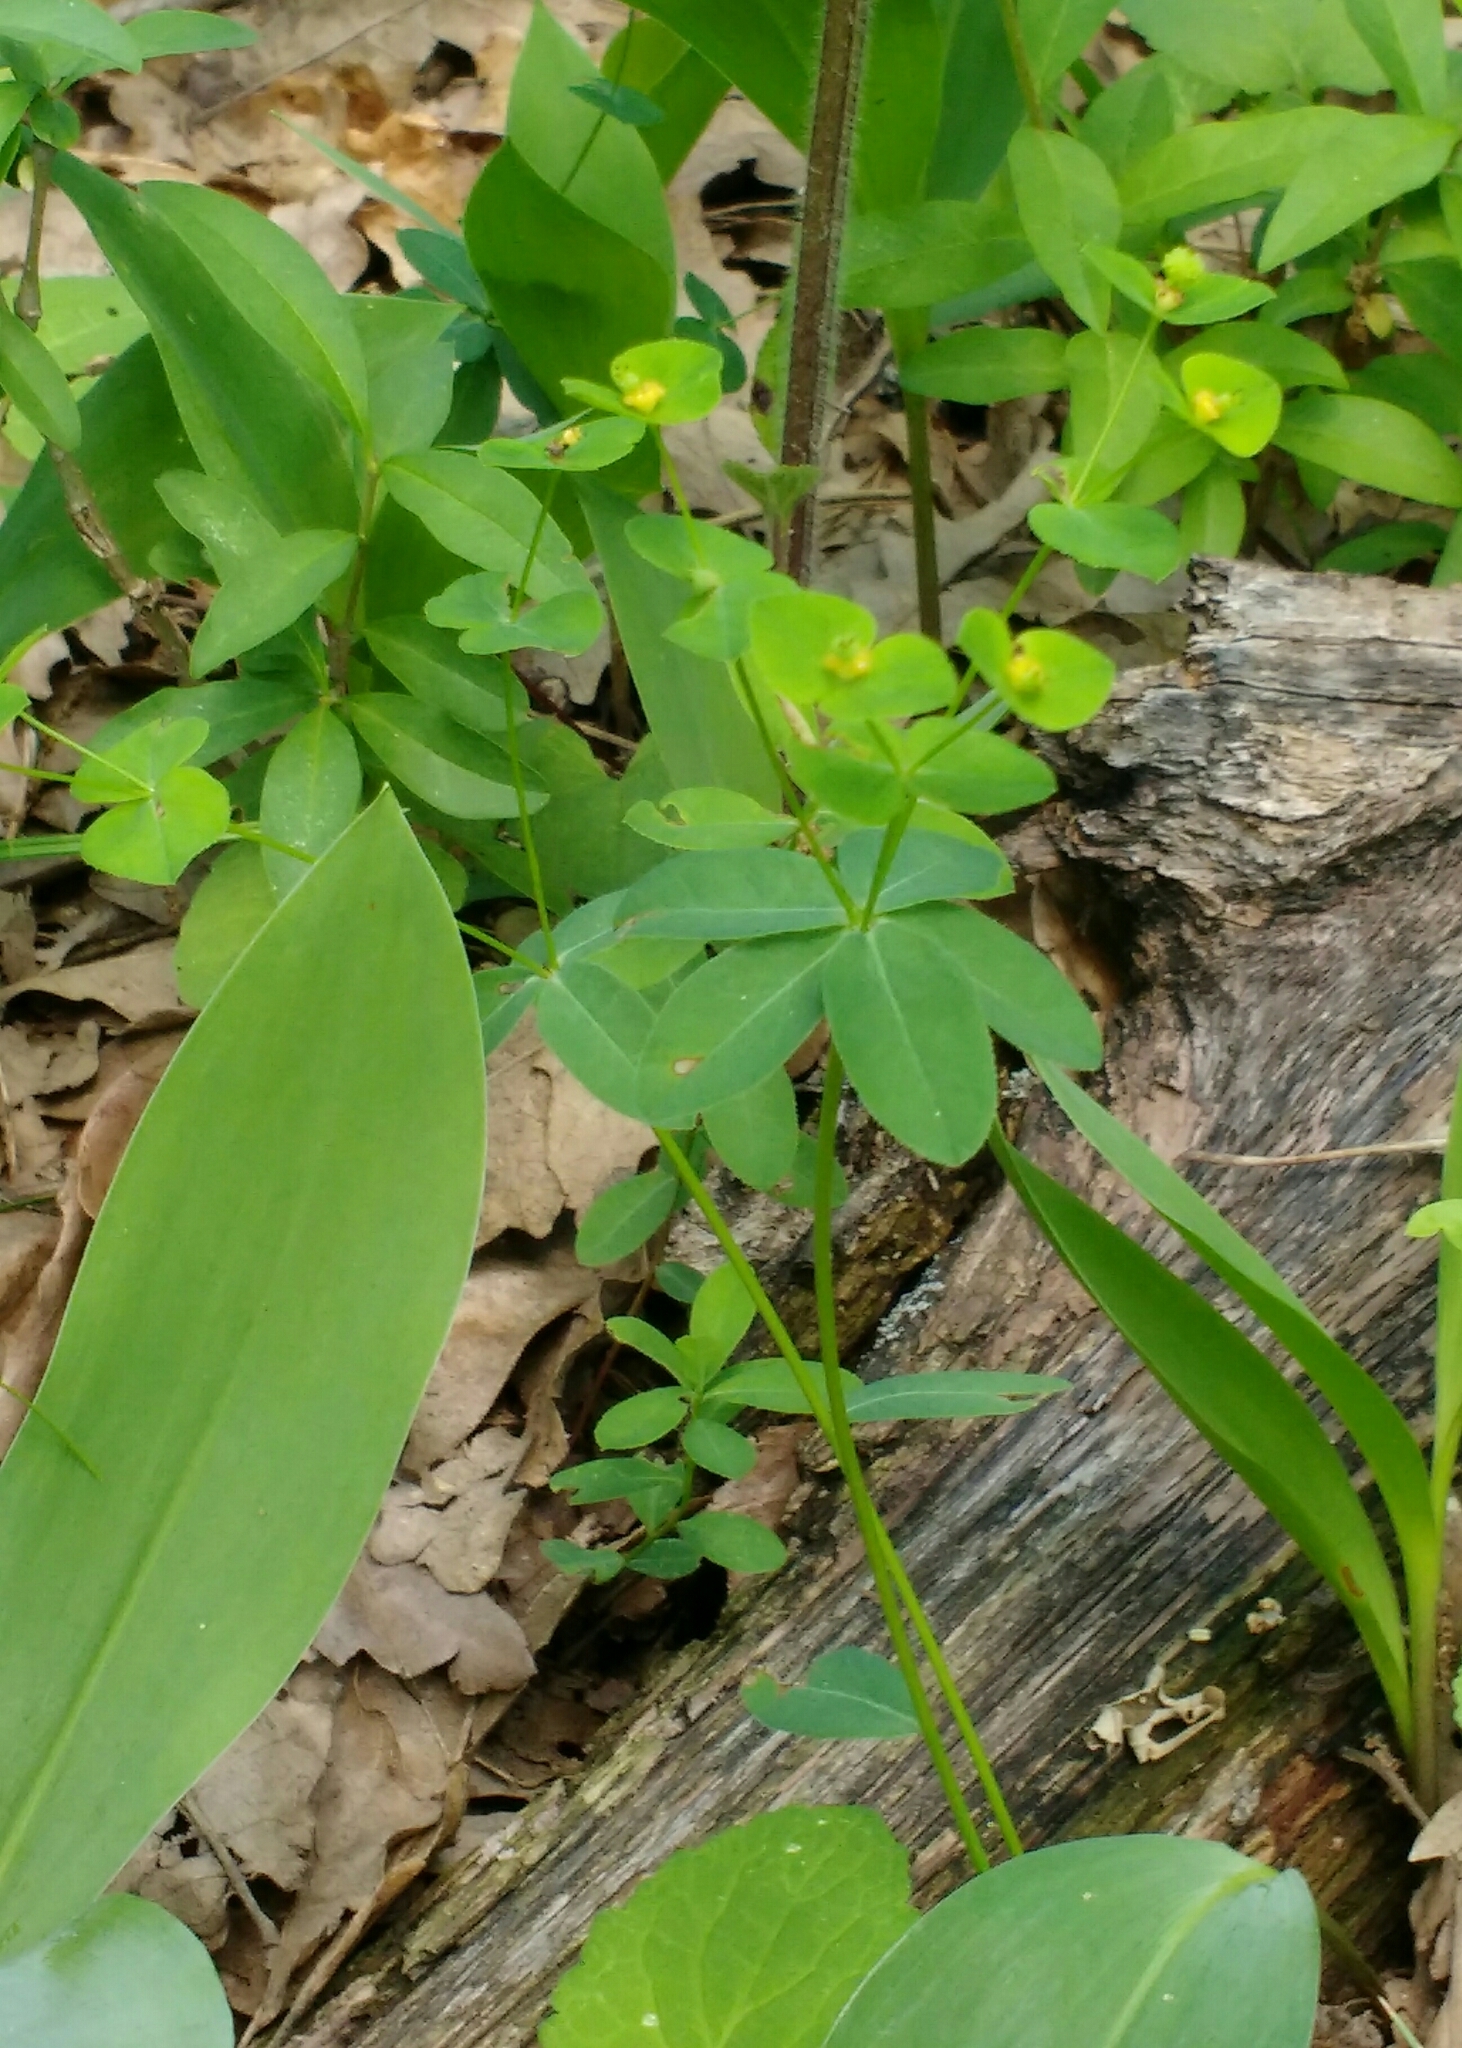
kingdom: Plantae
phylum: Tracheophyta
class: Magnoliopsida
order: Malpighiales
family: Euphorbiaceae
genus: Euphorbia
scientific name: Euphorbia angulata
